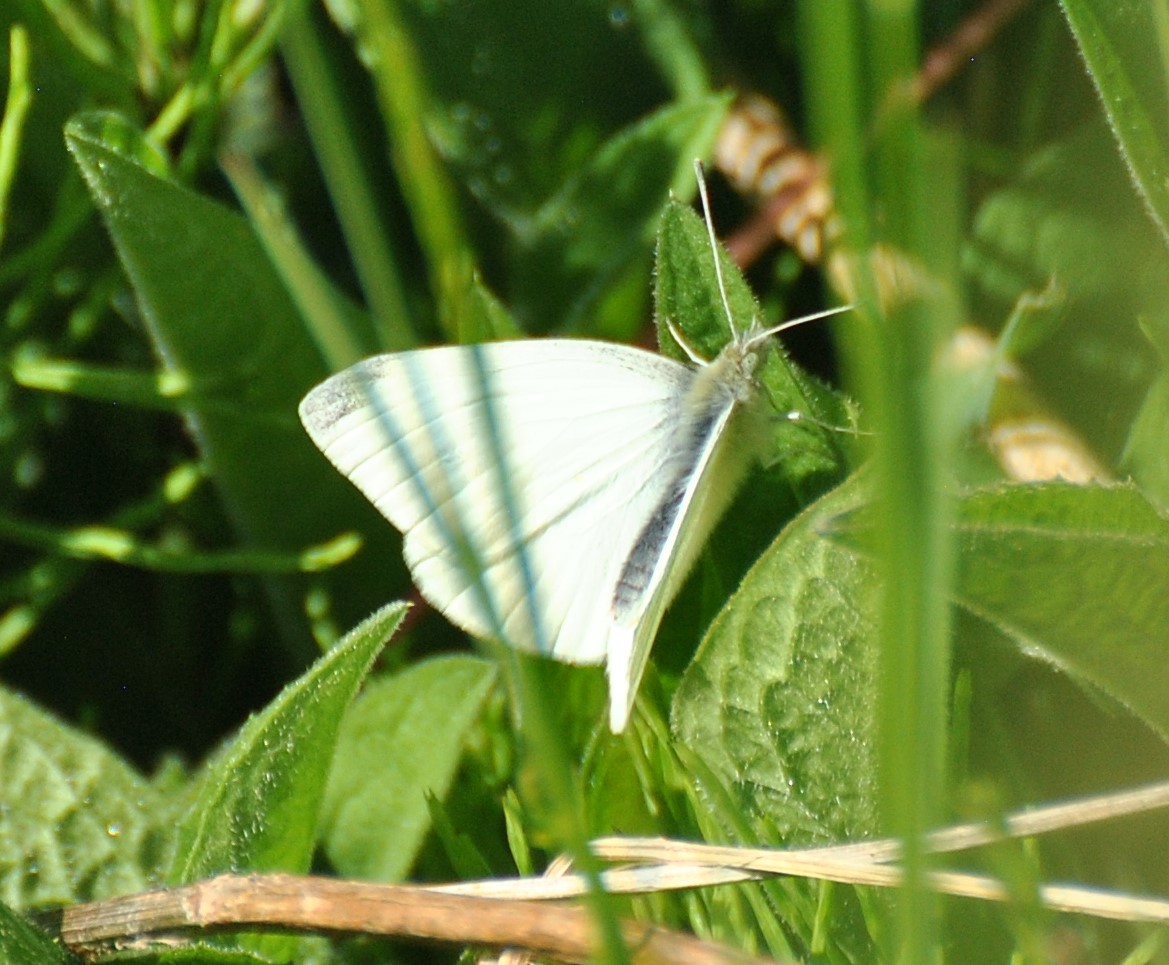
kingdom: Animalia
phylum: Arthropoda
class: Insecta
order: Lepidoptera
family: Pieridae
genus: Pieris
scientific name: Pieris rapae
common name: Small white
